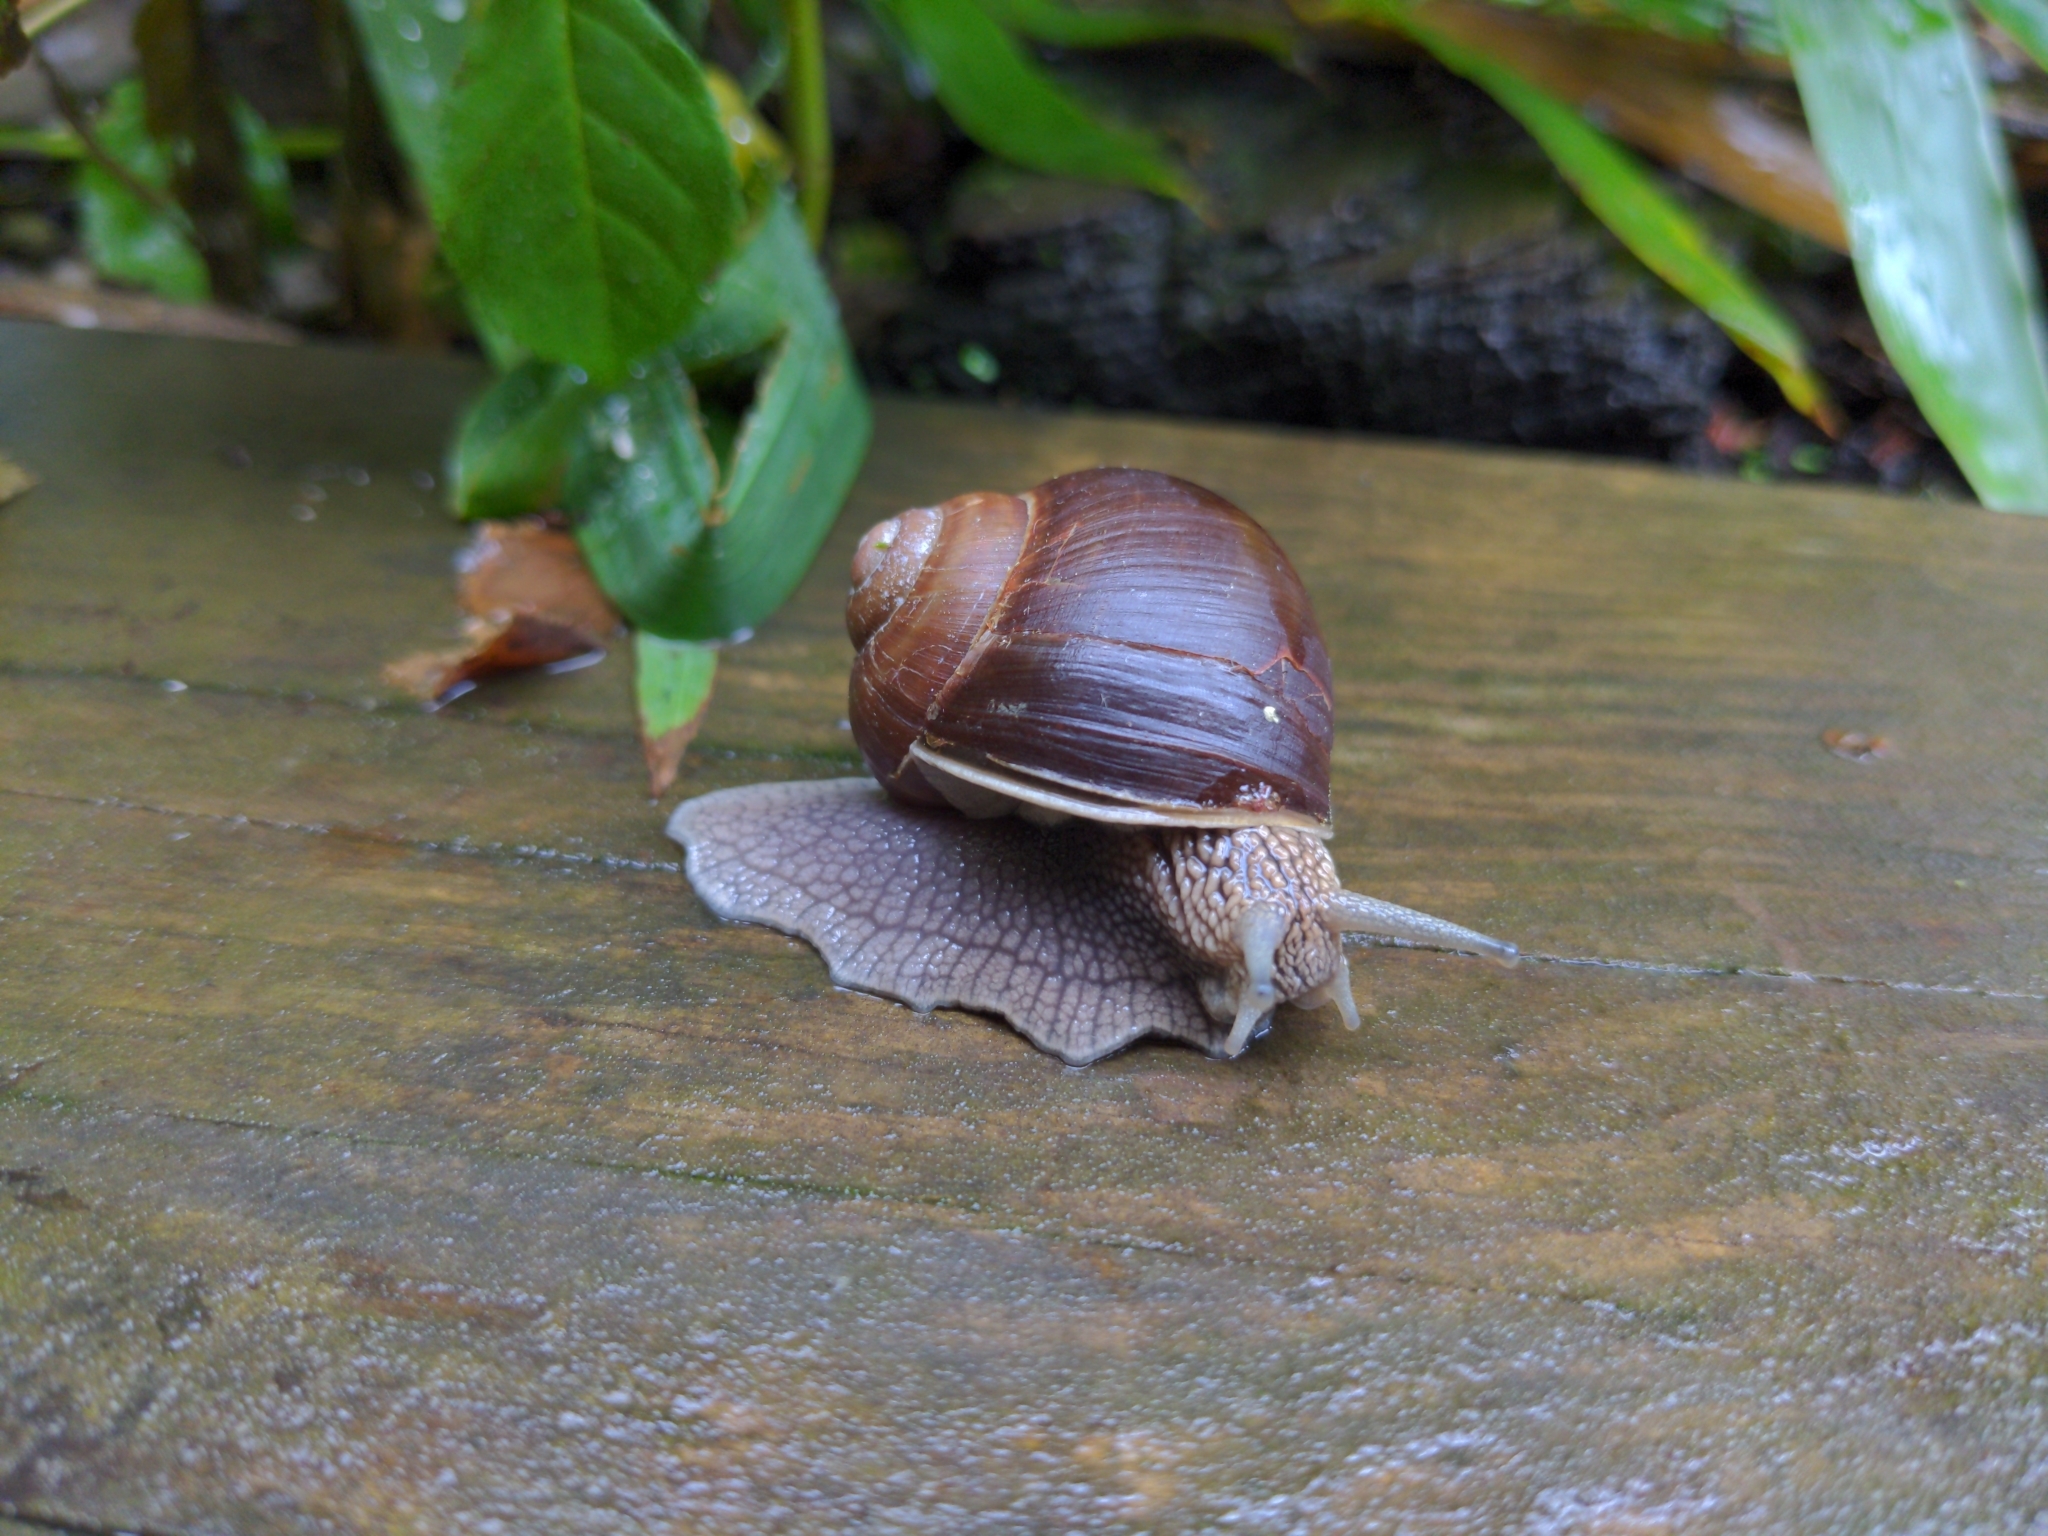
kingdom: Animalia
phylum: Mollusca
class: Gastropoda
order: Stylommatophora
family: Helicidae
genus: Helix
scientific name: Helix pomatia
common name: Roman snail
